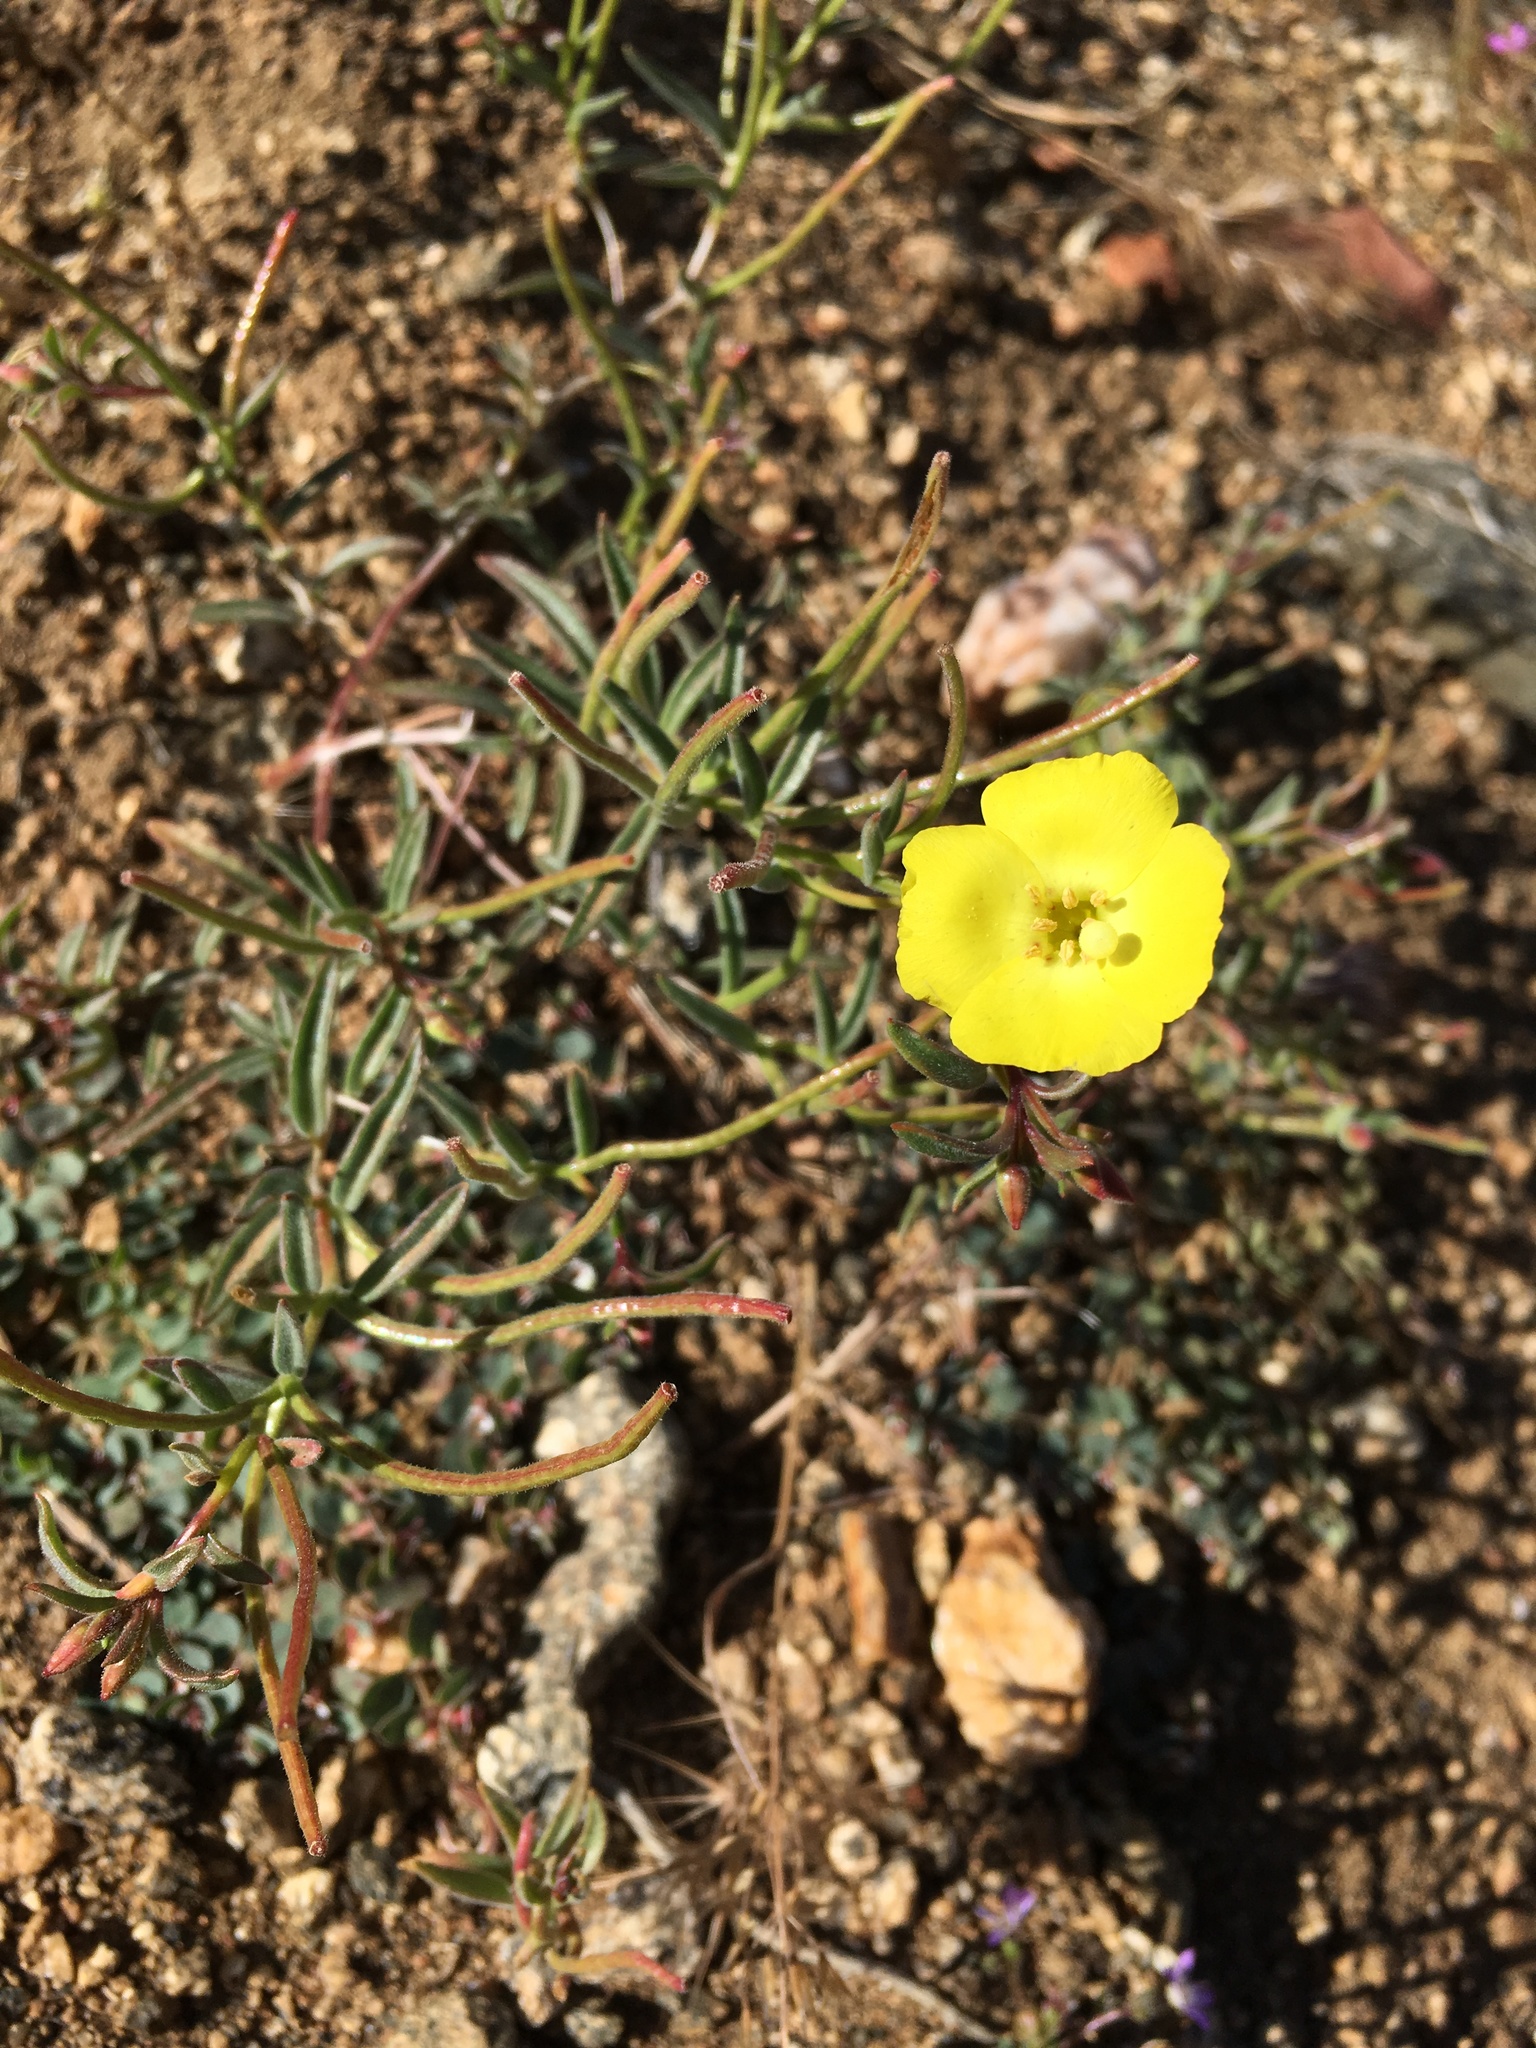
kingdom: Plantae
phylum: Tracheophyta
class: Magnoliopsida
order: Myrtales
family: Onagraceae
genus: Camissonia
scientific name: Camissonia campestris
